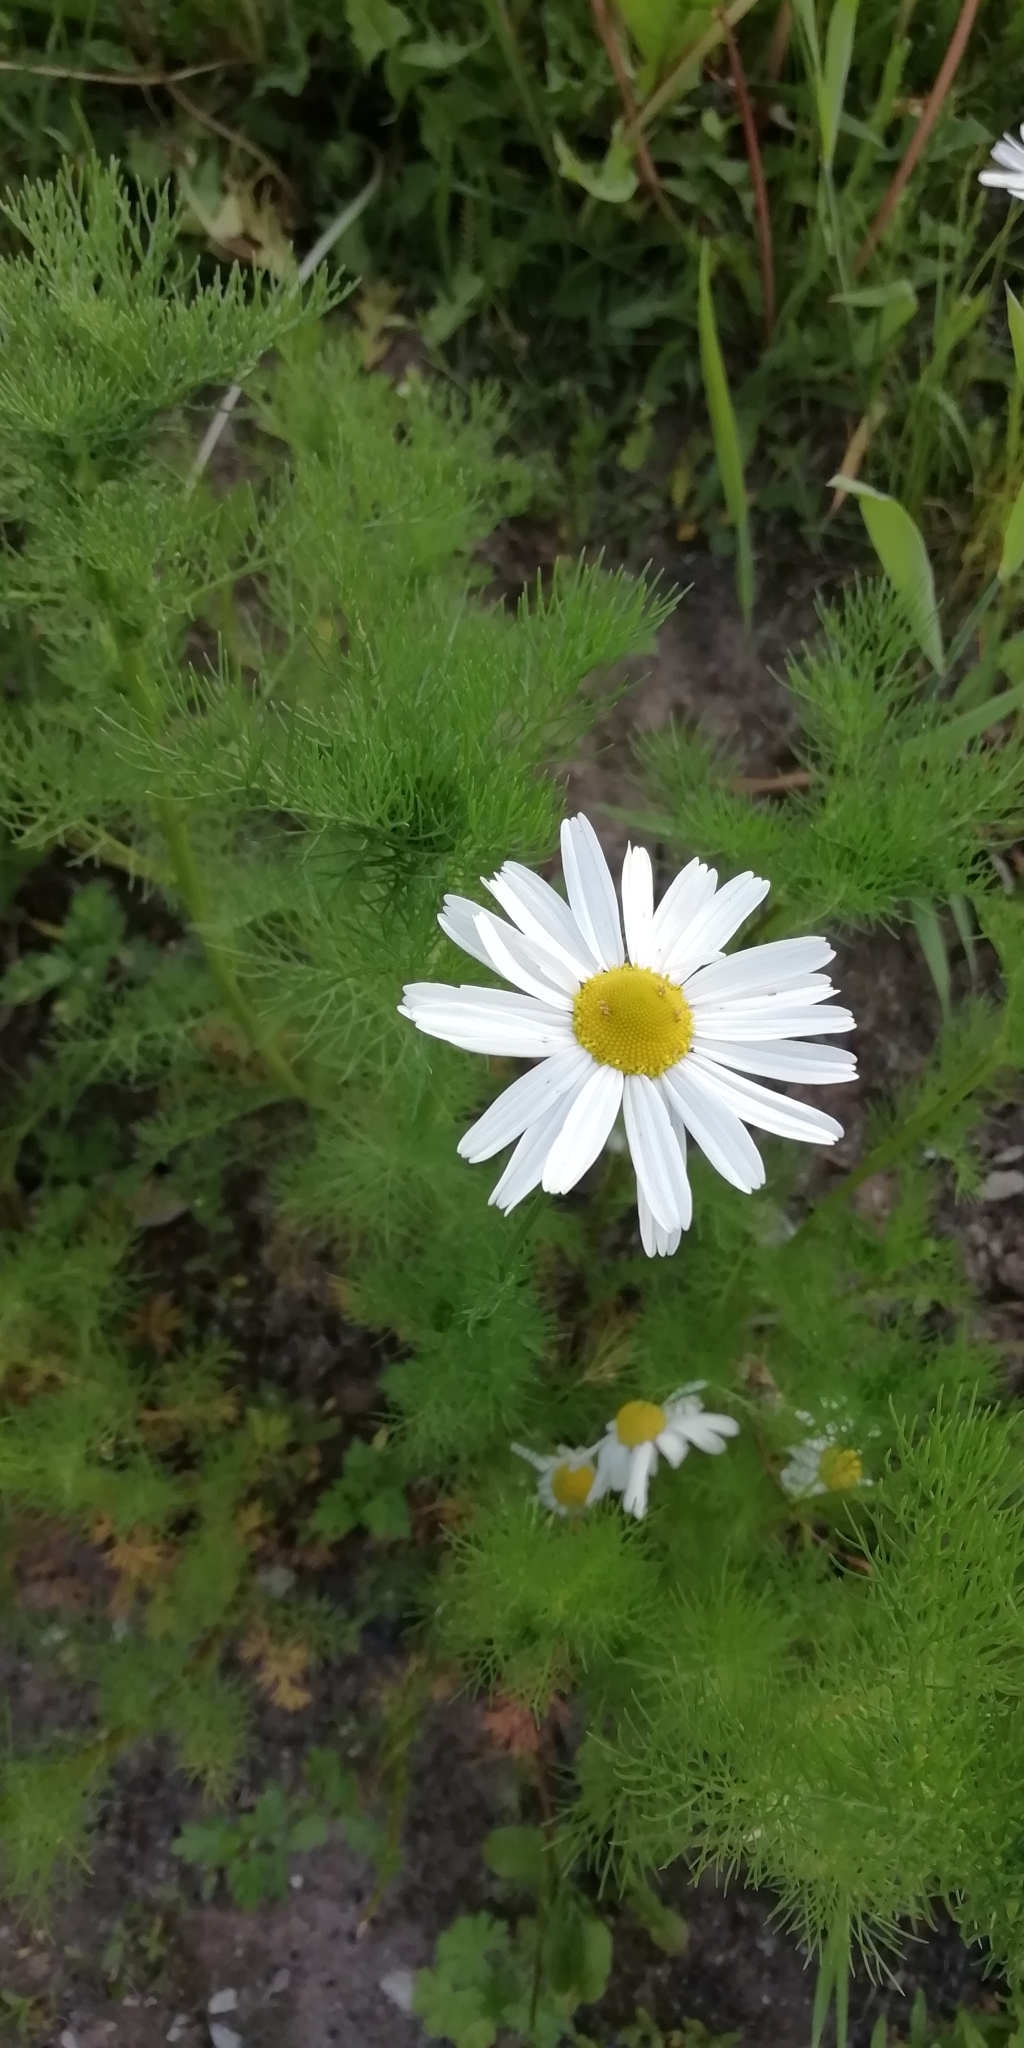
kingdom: Plantae
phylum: Tracheophyta
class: Magnoliopsida
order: Asterales
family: Asteraceae
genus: Tripleurospermum
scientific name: Tripleurospermum inodorum
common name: Scentless mayweed
